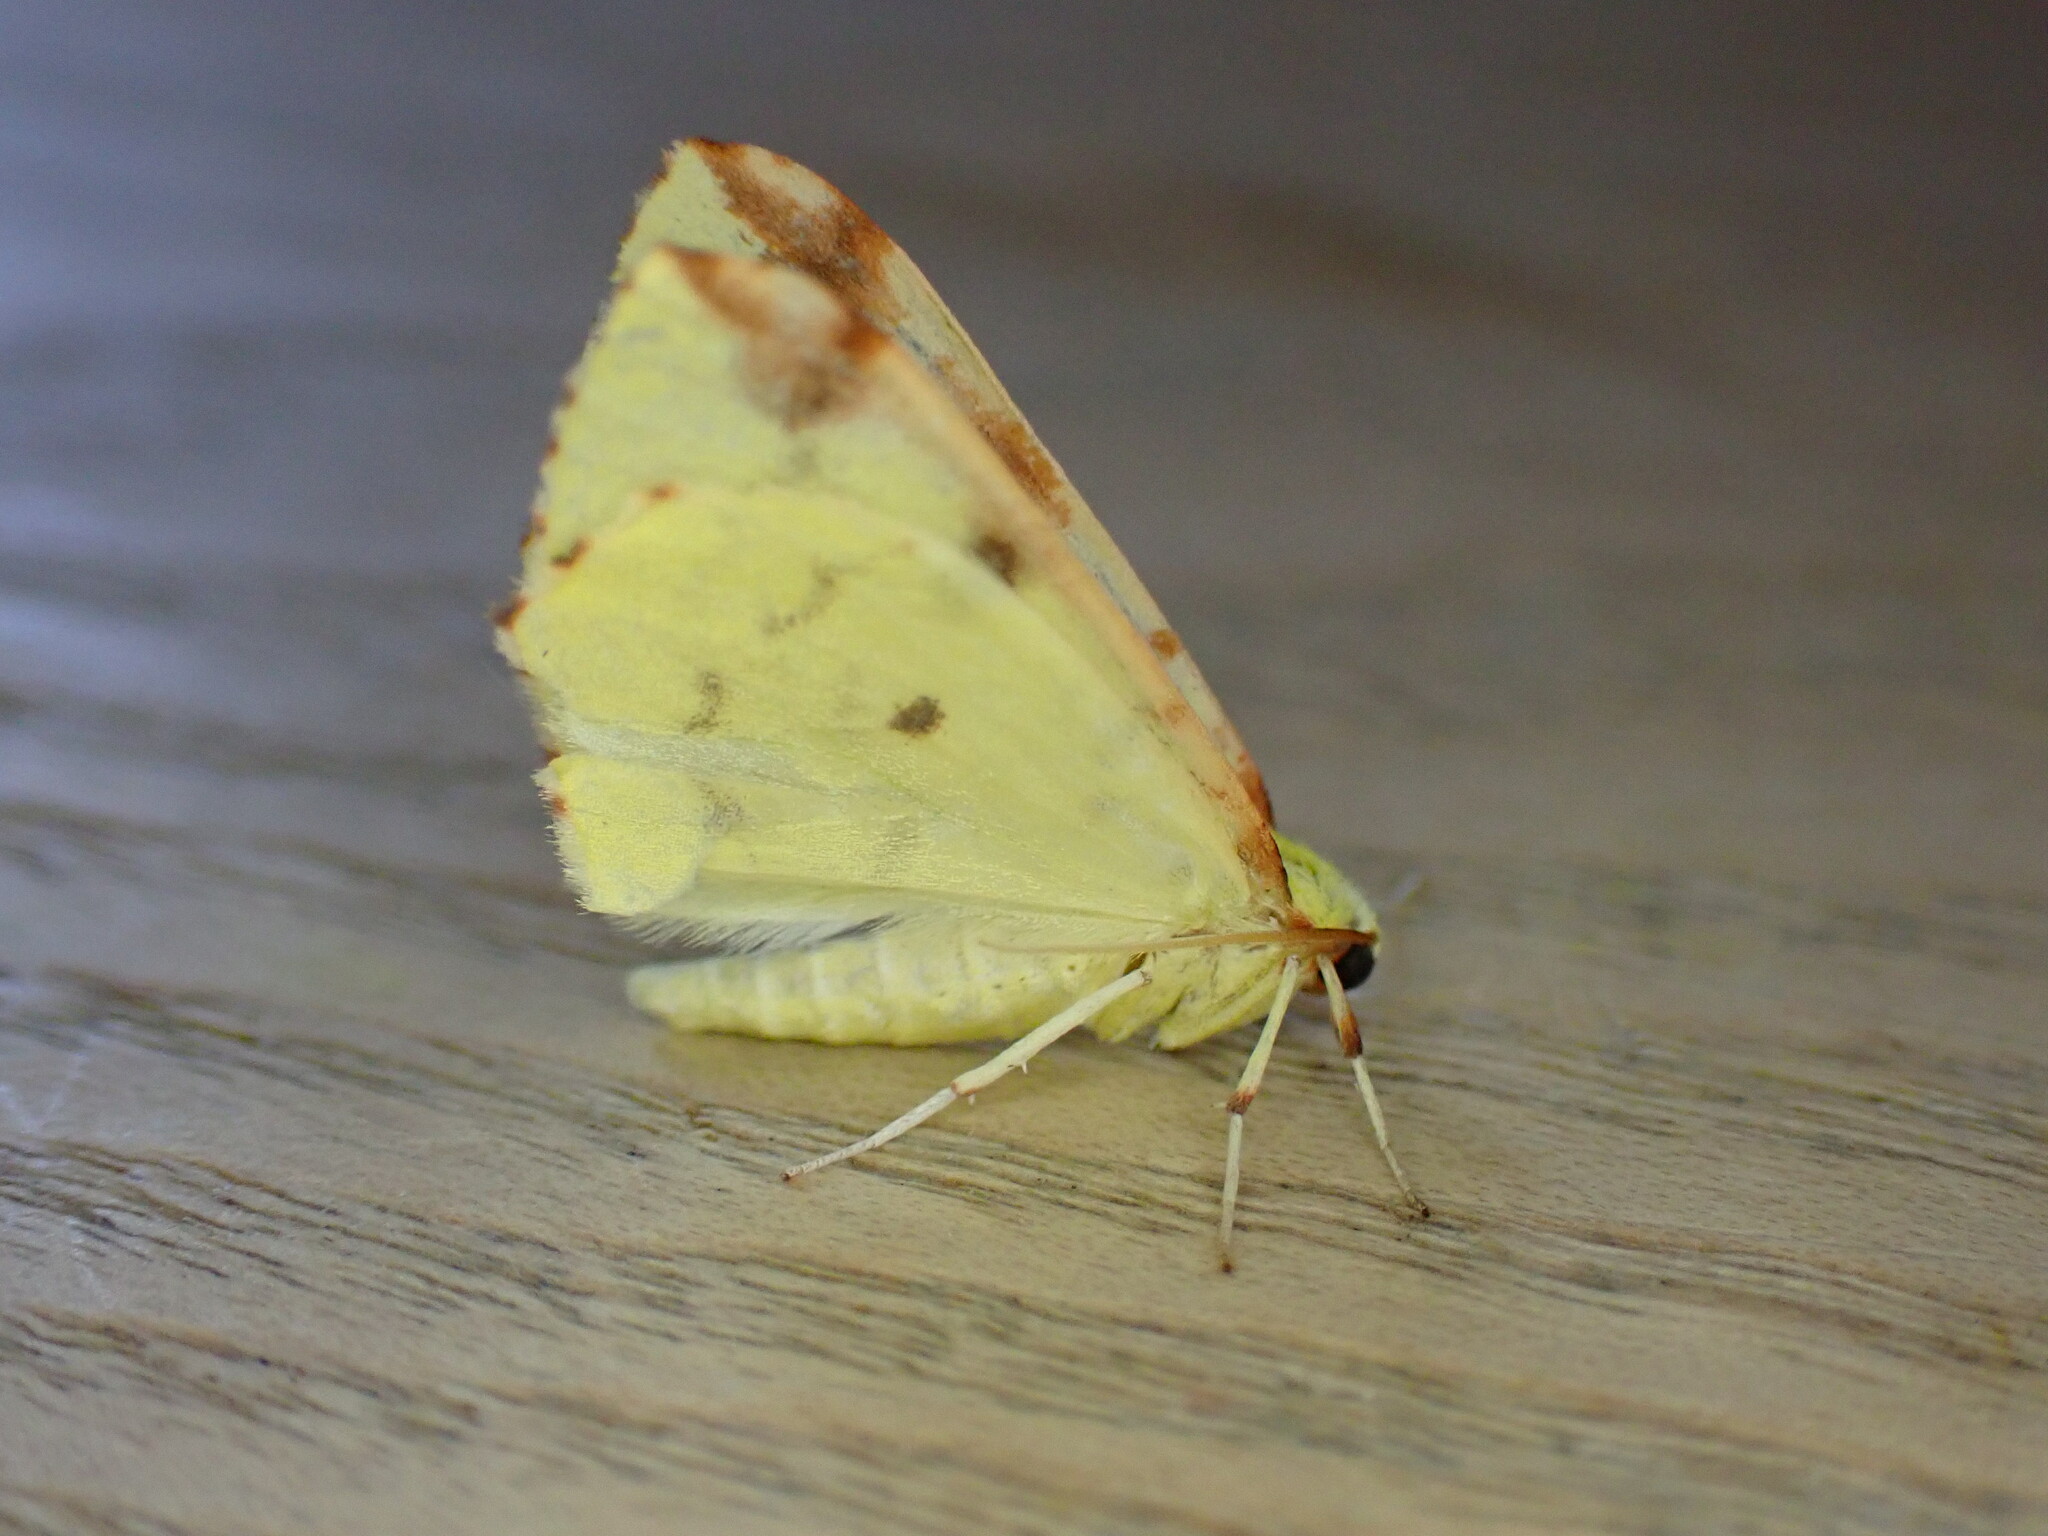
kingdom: Animalia
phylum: Arthropoda
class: Insecta
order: Lepidoptera
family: Geometridae
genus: Opisthograptis
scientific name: Opisthograptis luteolata
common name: Brimstone moth
